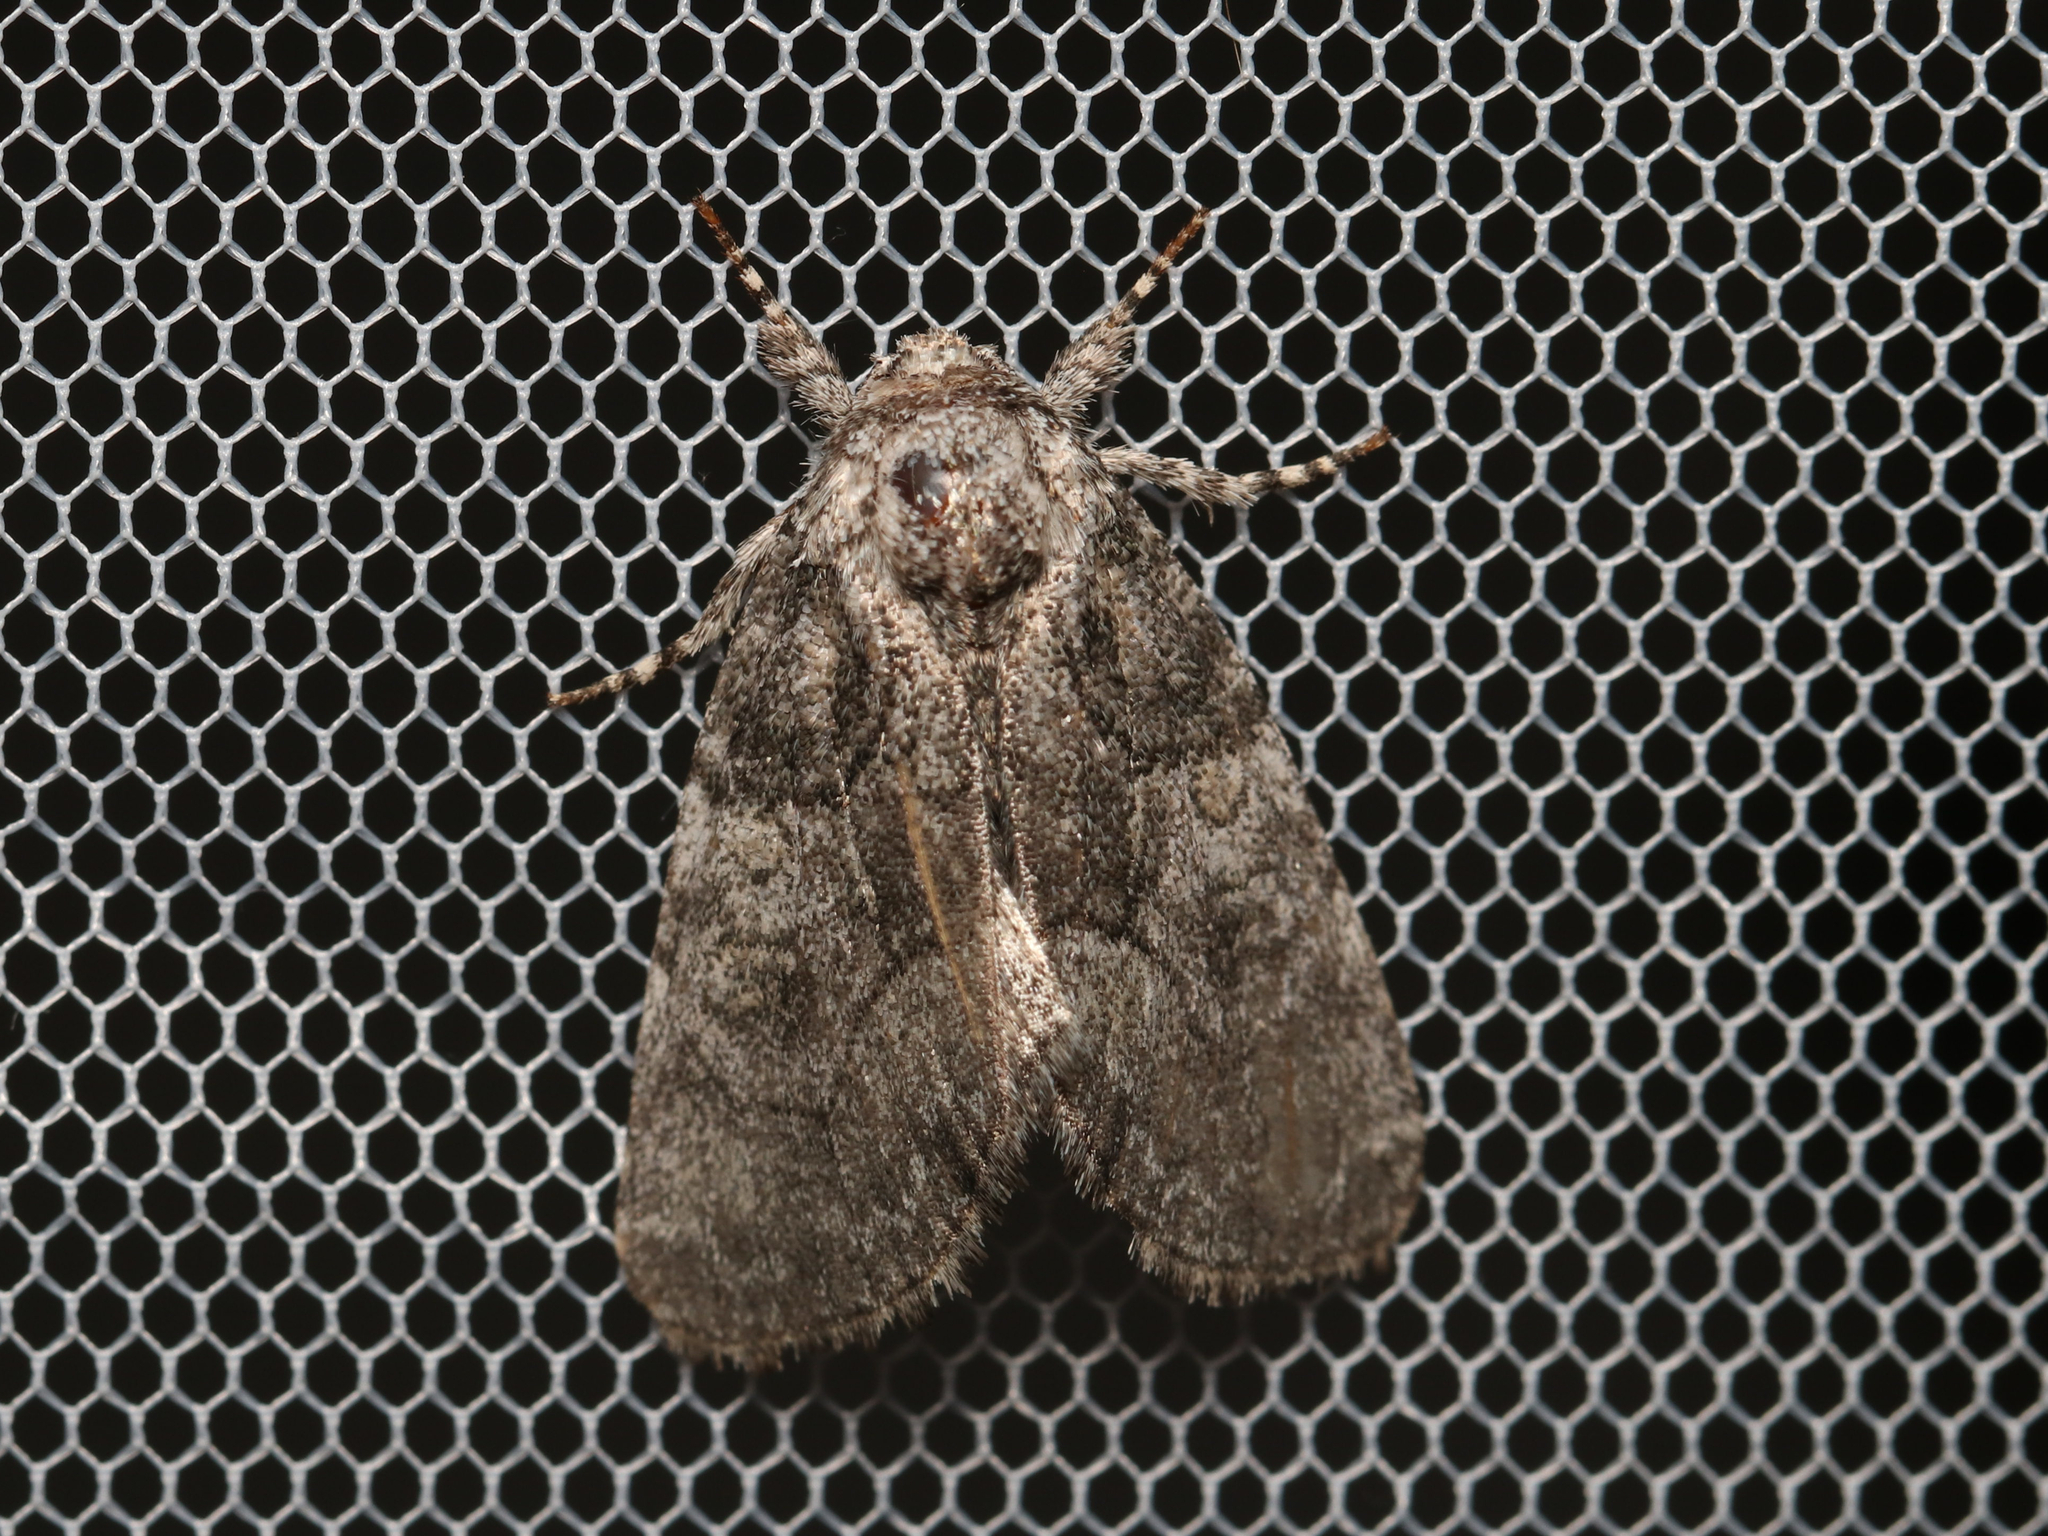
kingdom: Animalia
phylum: Arthropoda
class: Insecta
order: Lepidoptera
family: Noctuidae
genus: Raphia
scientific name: Raphia frater
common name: Brother
